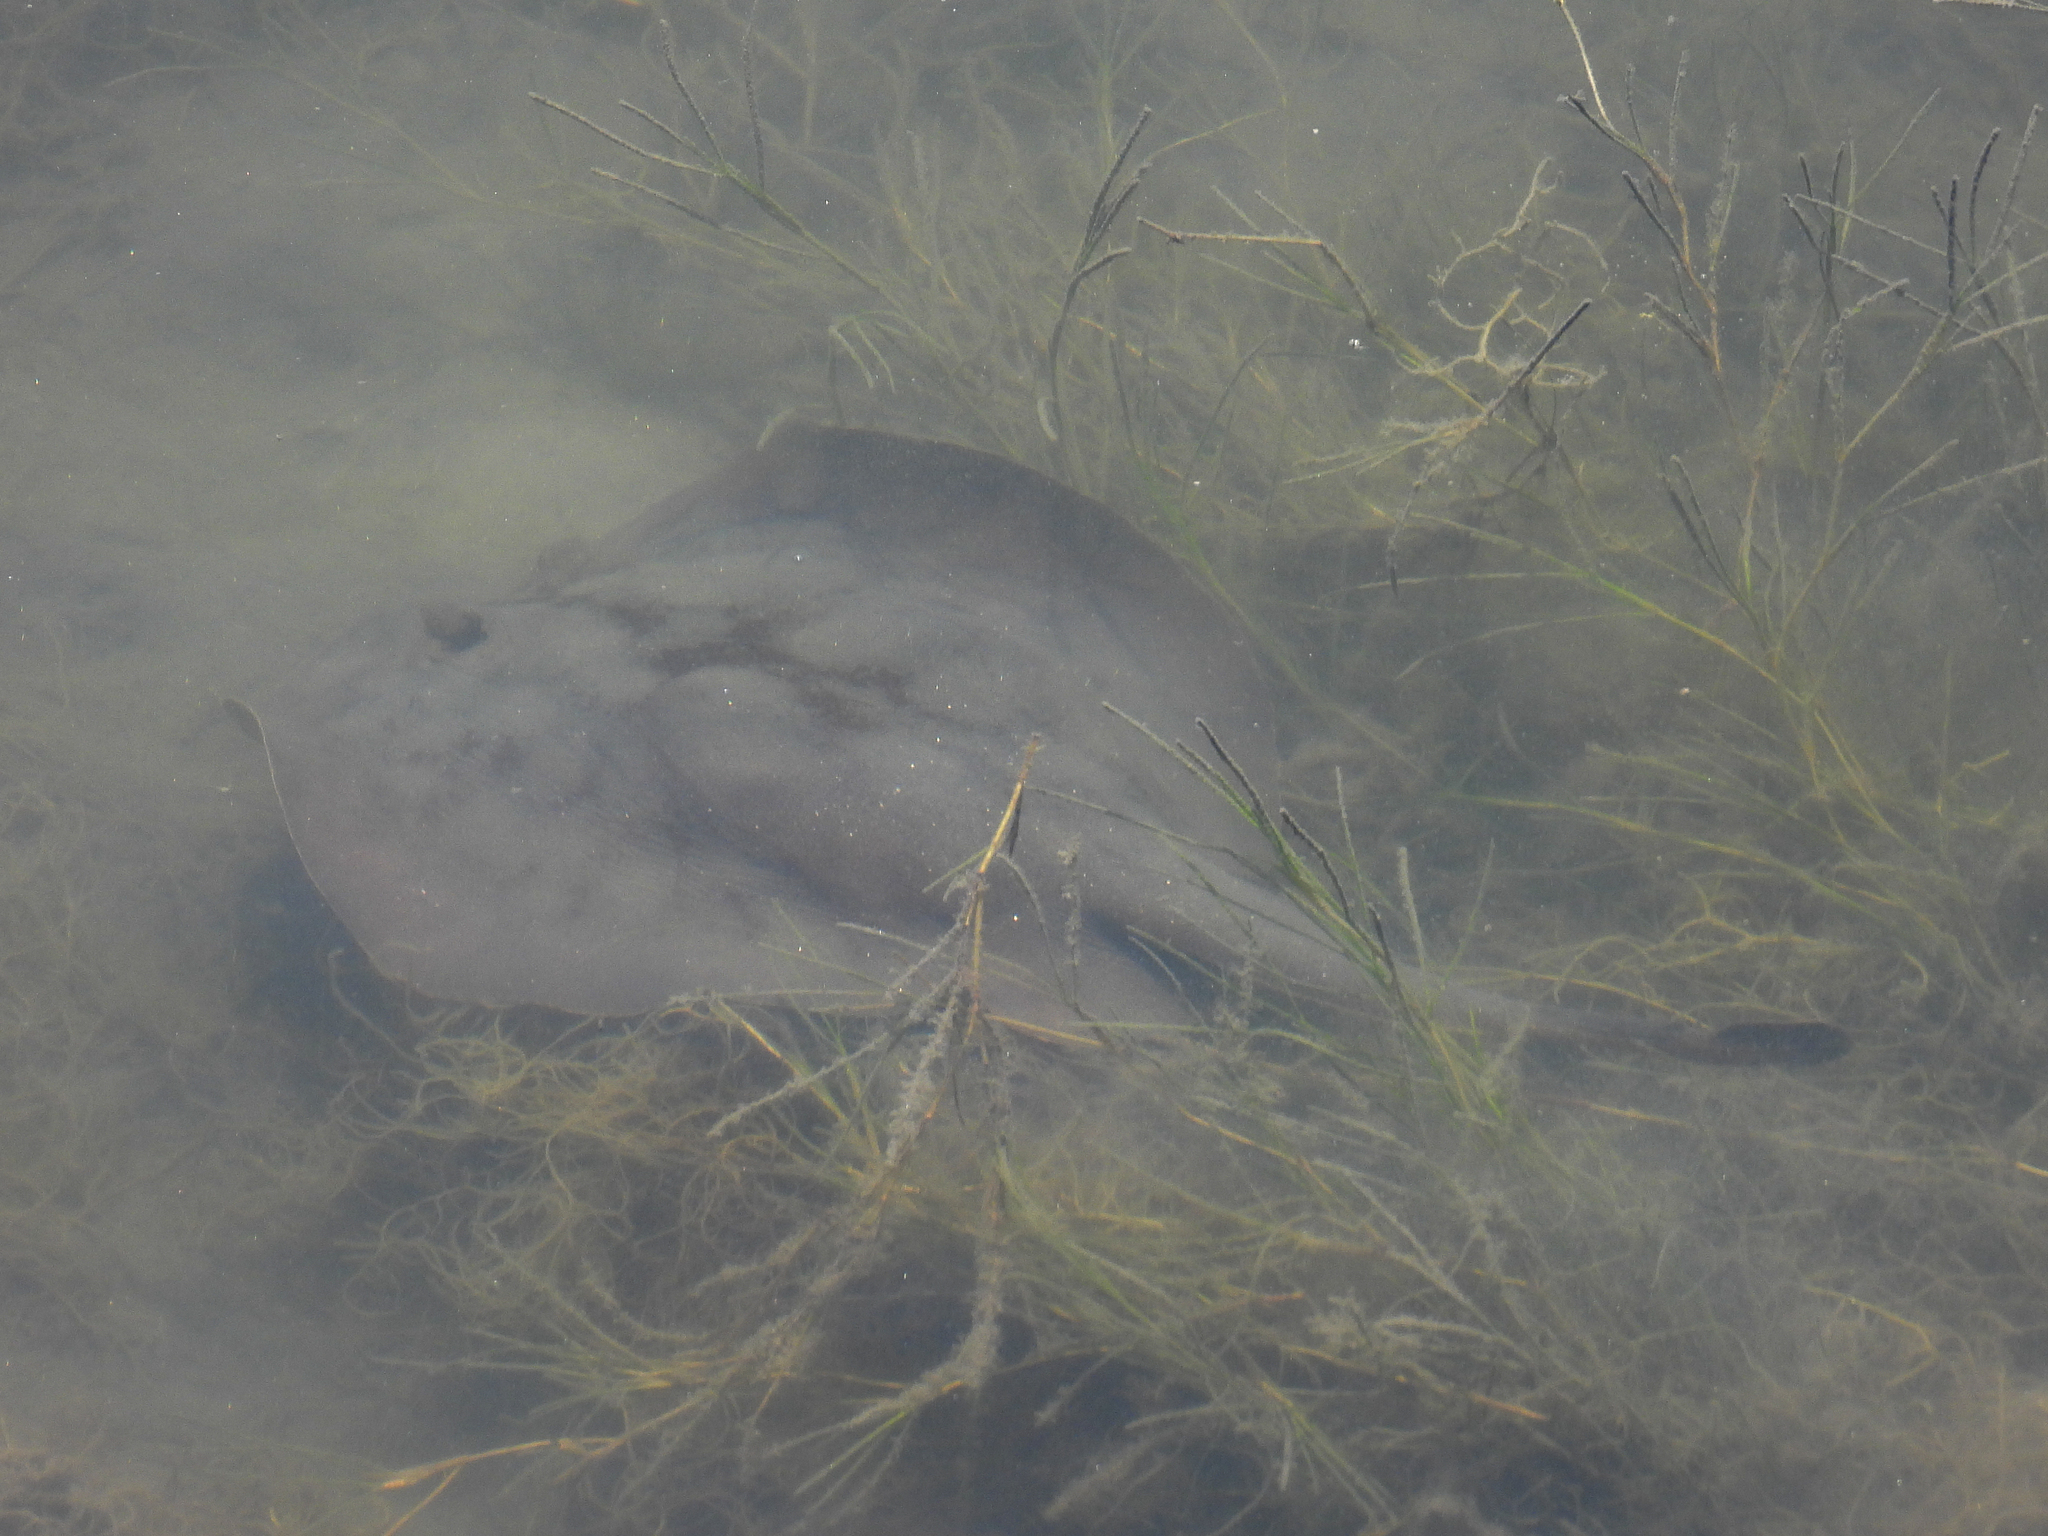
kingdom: Animalia
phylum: Chordata
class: Elasmobranchii
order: Myliobatiformes
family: Urolophidae
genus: Urolophus
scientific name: Urolophus halleri
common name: Round stingray
